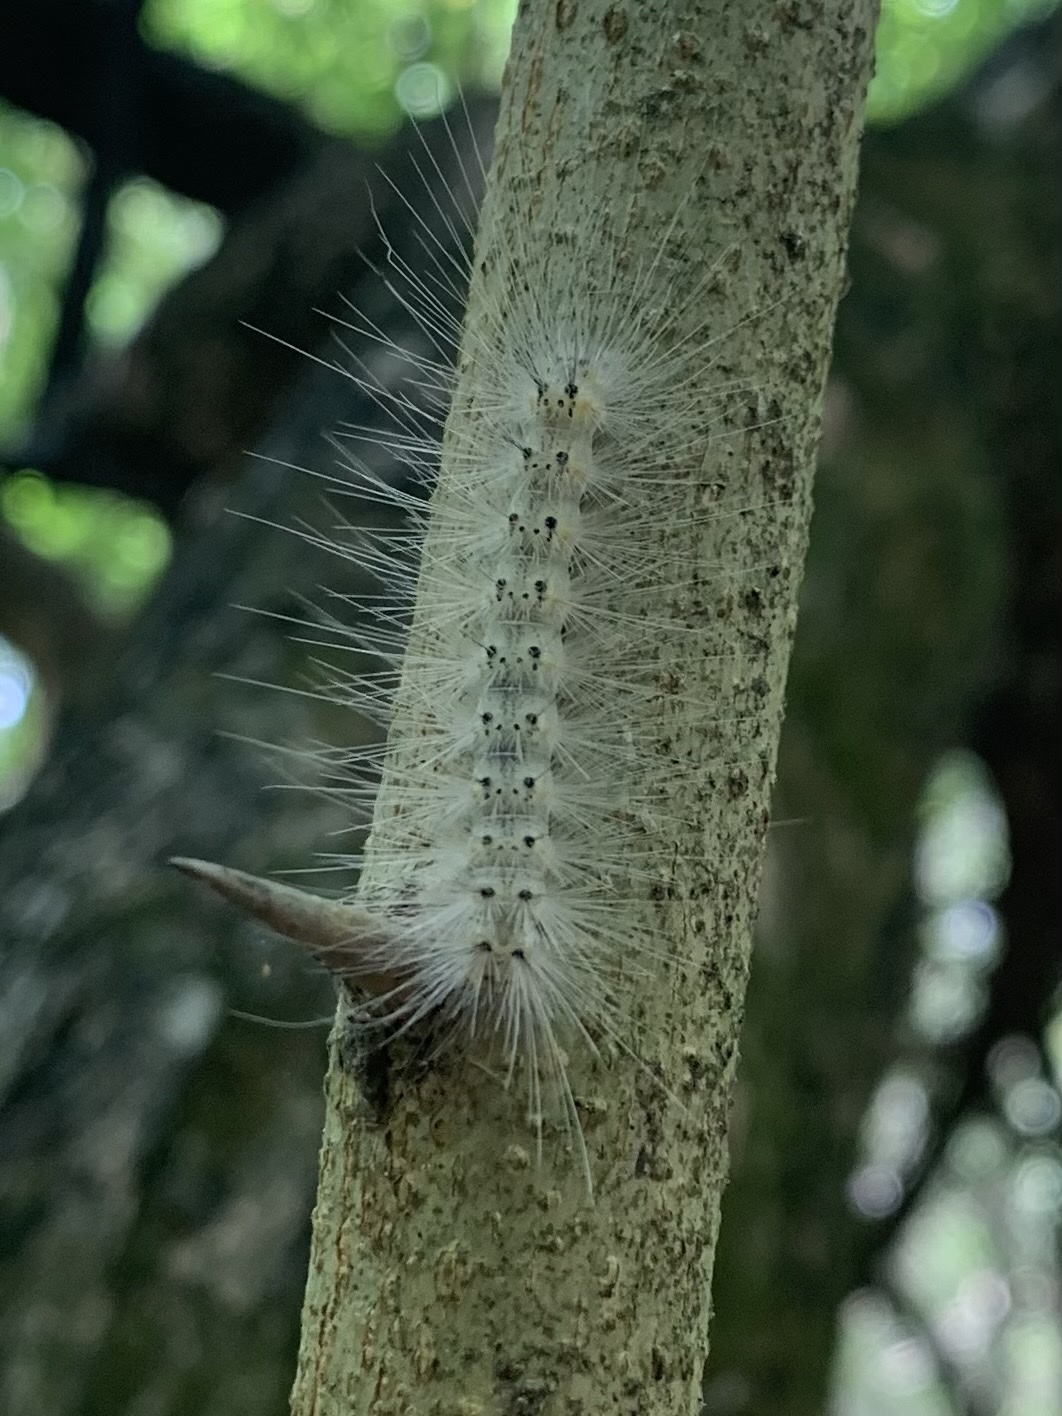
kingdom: Animalia
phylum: Arthropoda
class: Insecta
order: Lepidoptera
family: Erebidae
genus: Hyphantria
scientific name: Hyphantria cunea
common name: American white moth
